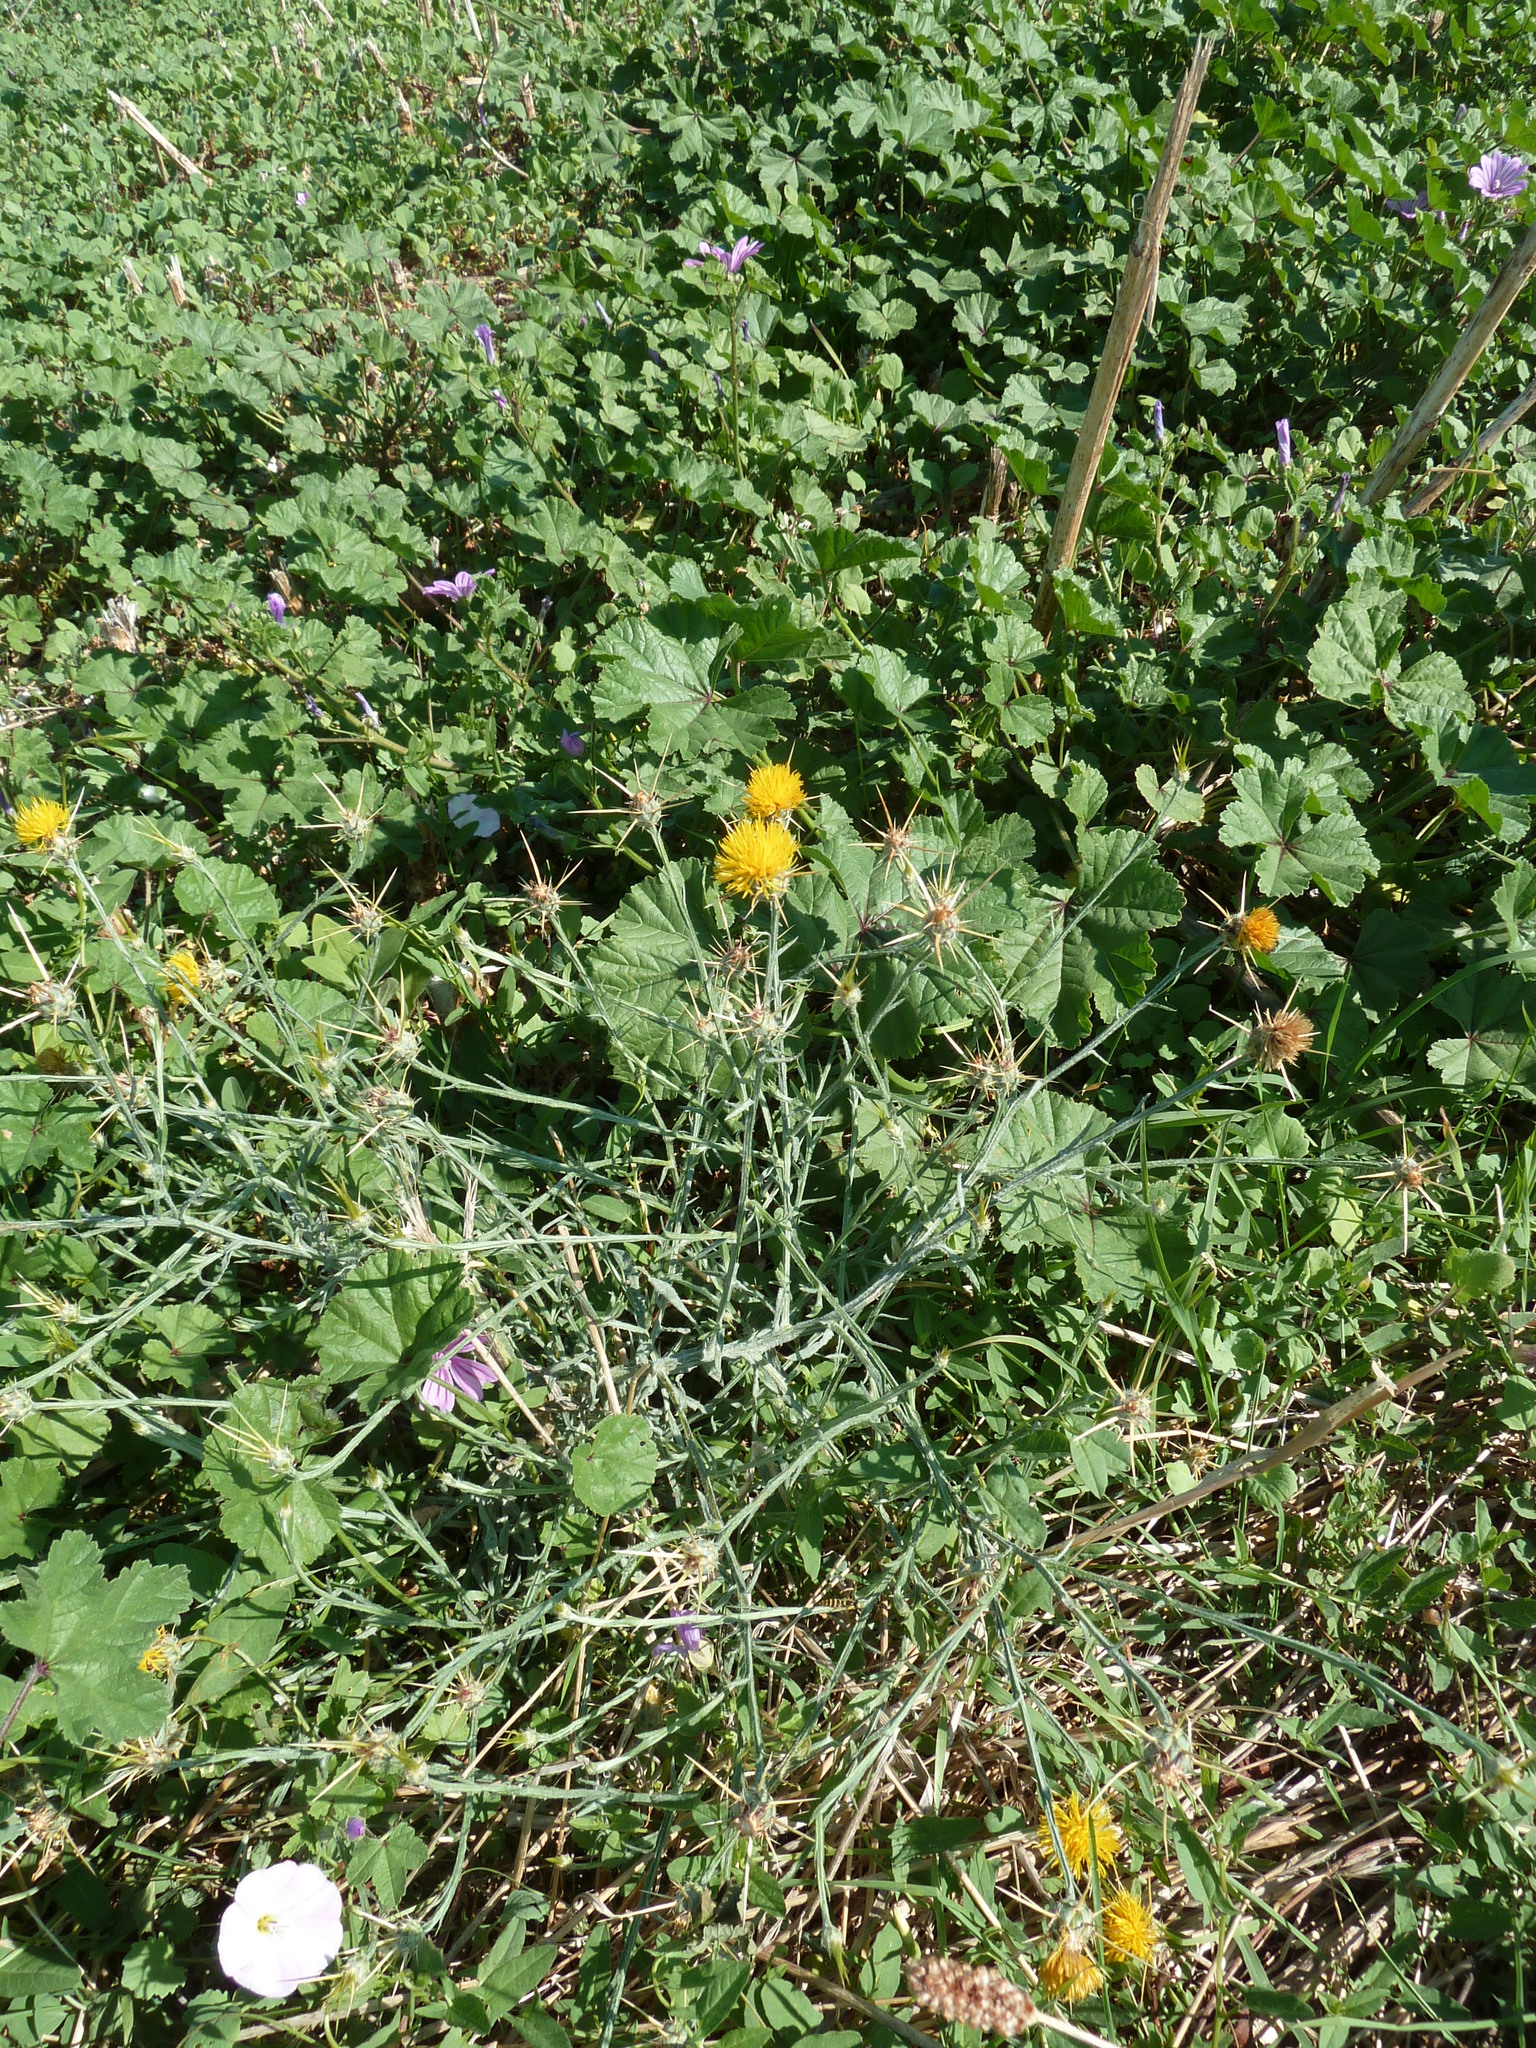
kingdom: Plantae
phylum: Tracheophyta
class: Magnoliopsida
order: Asterales
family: Asteraceae
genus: Centaurea
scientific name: Centaurea solstitialis
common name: Yellow star-thistle
